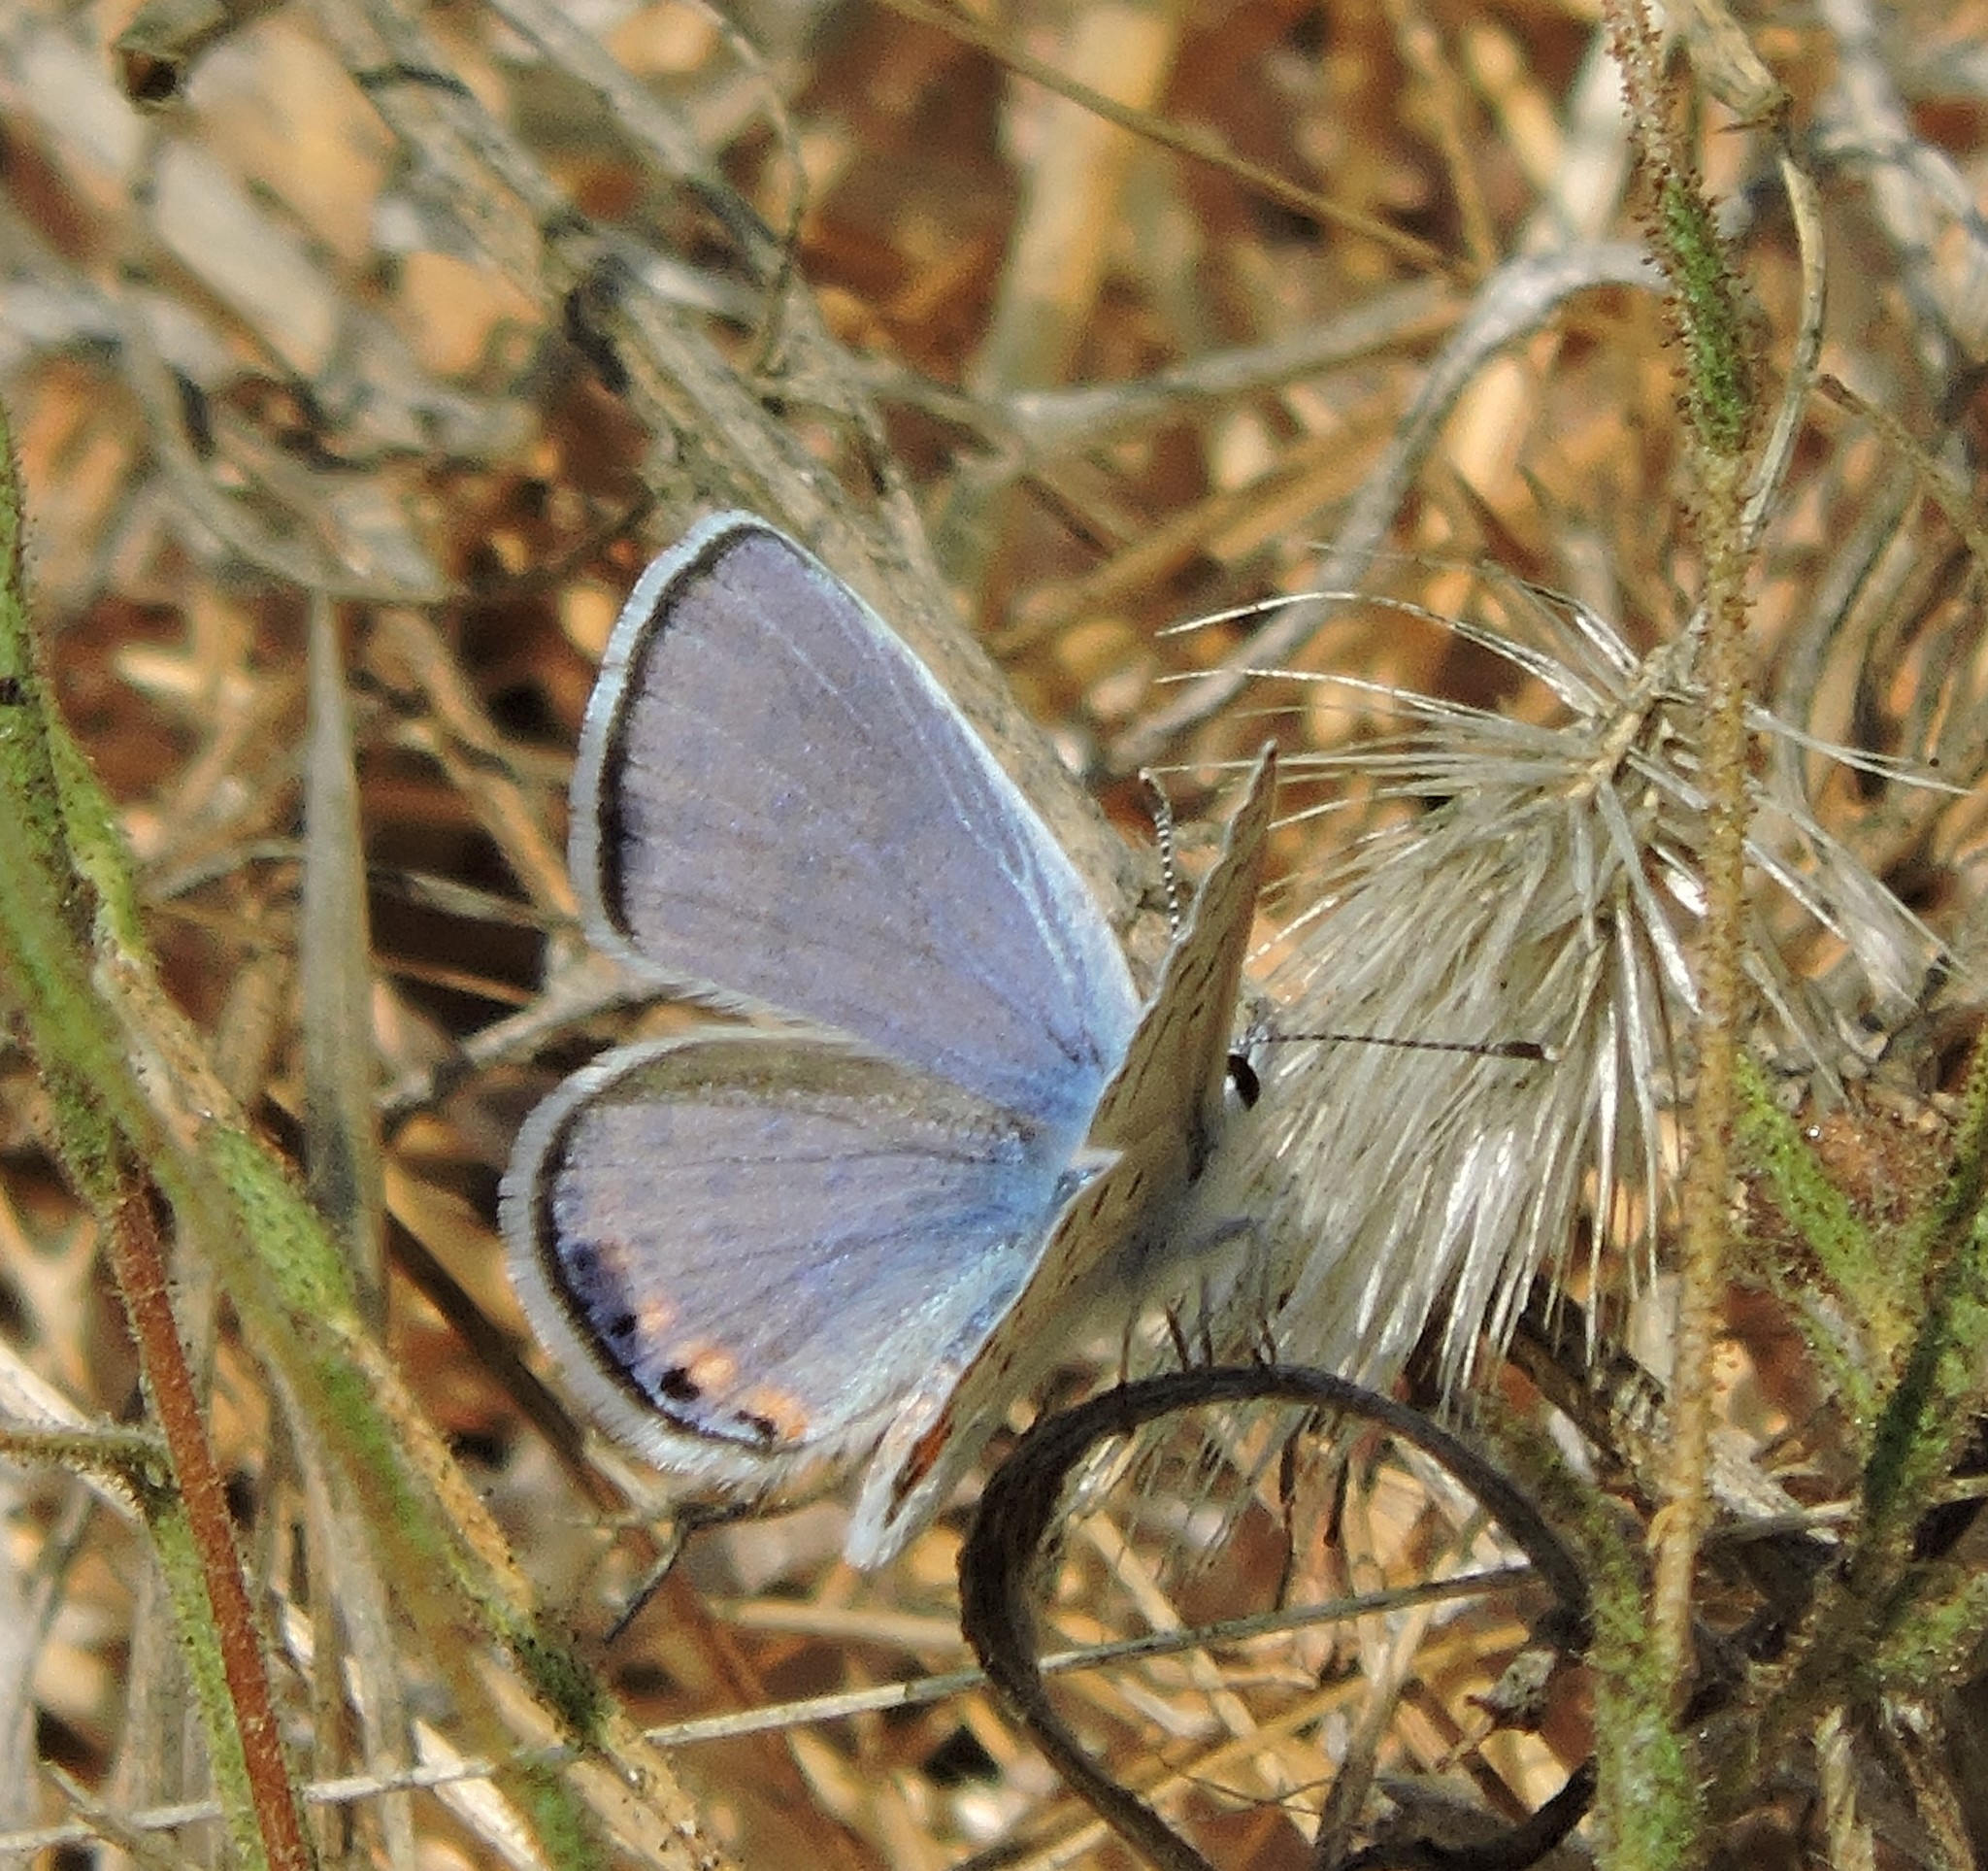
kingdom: Animalia
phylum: Arthropoda
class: Insecta
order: Lepidoptera
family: Lycaenidae
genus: Icaricia
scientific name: Icaricia acmon
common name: Acmon blue
